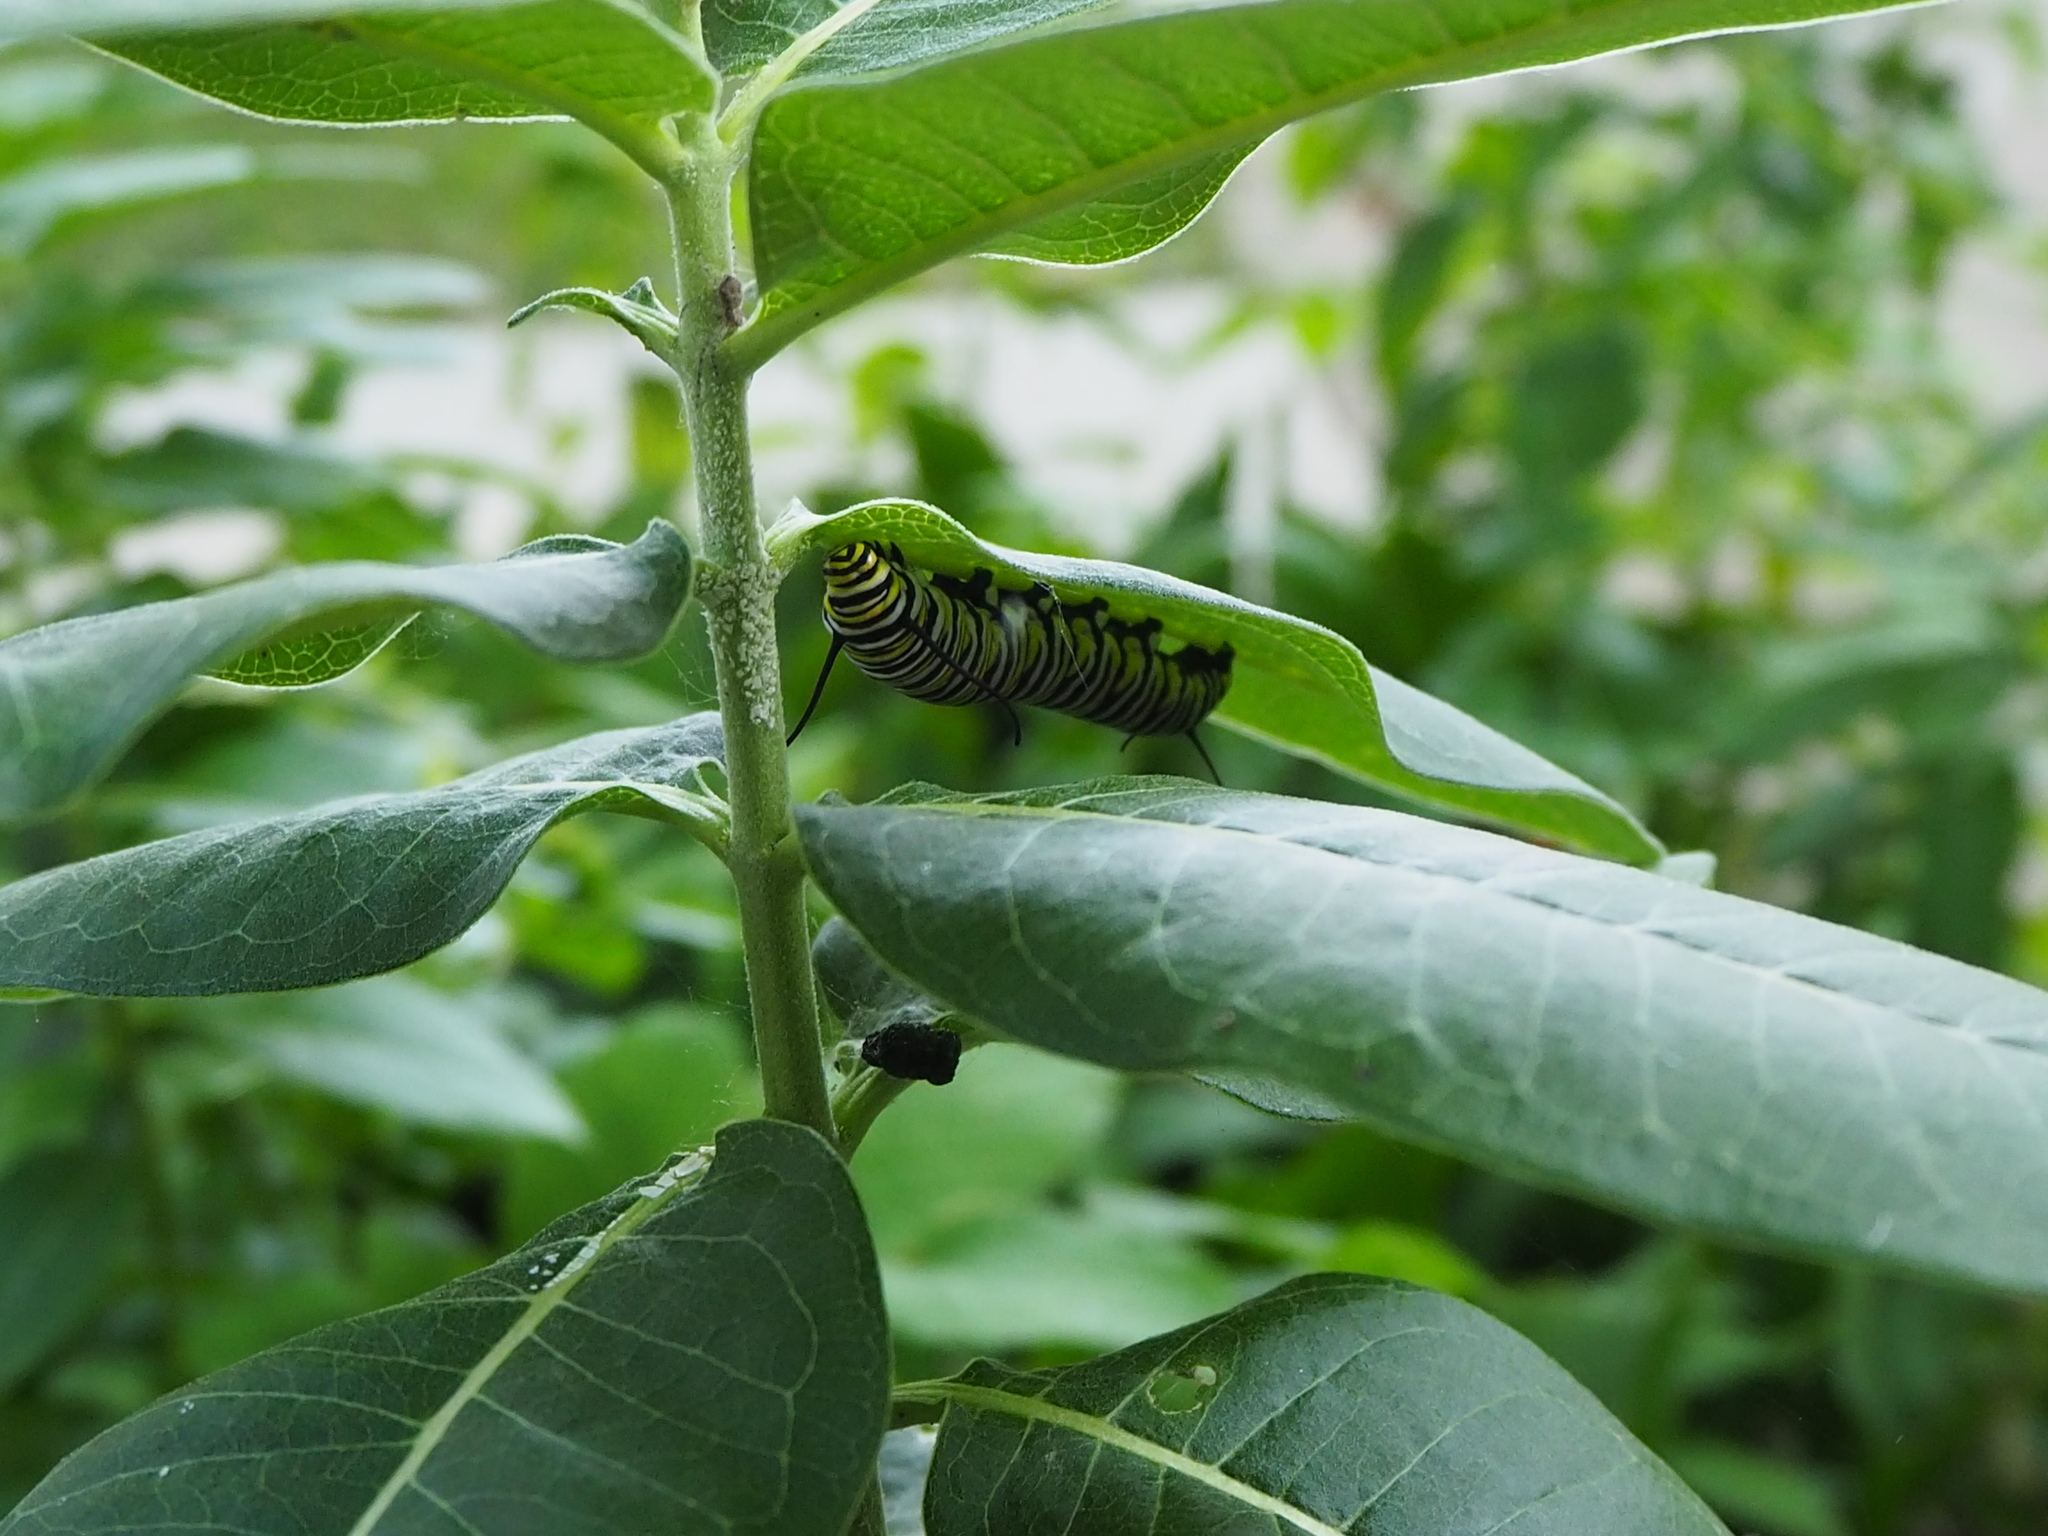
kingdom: Animalia
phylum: Arthropoda
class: Insecta
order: Lepidoptera
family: Nymphalidae
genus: Danaus
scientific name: Danaus plexippus
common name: Monarch
